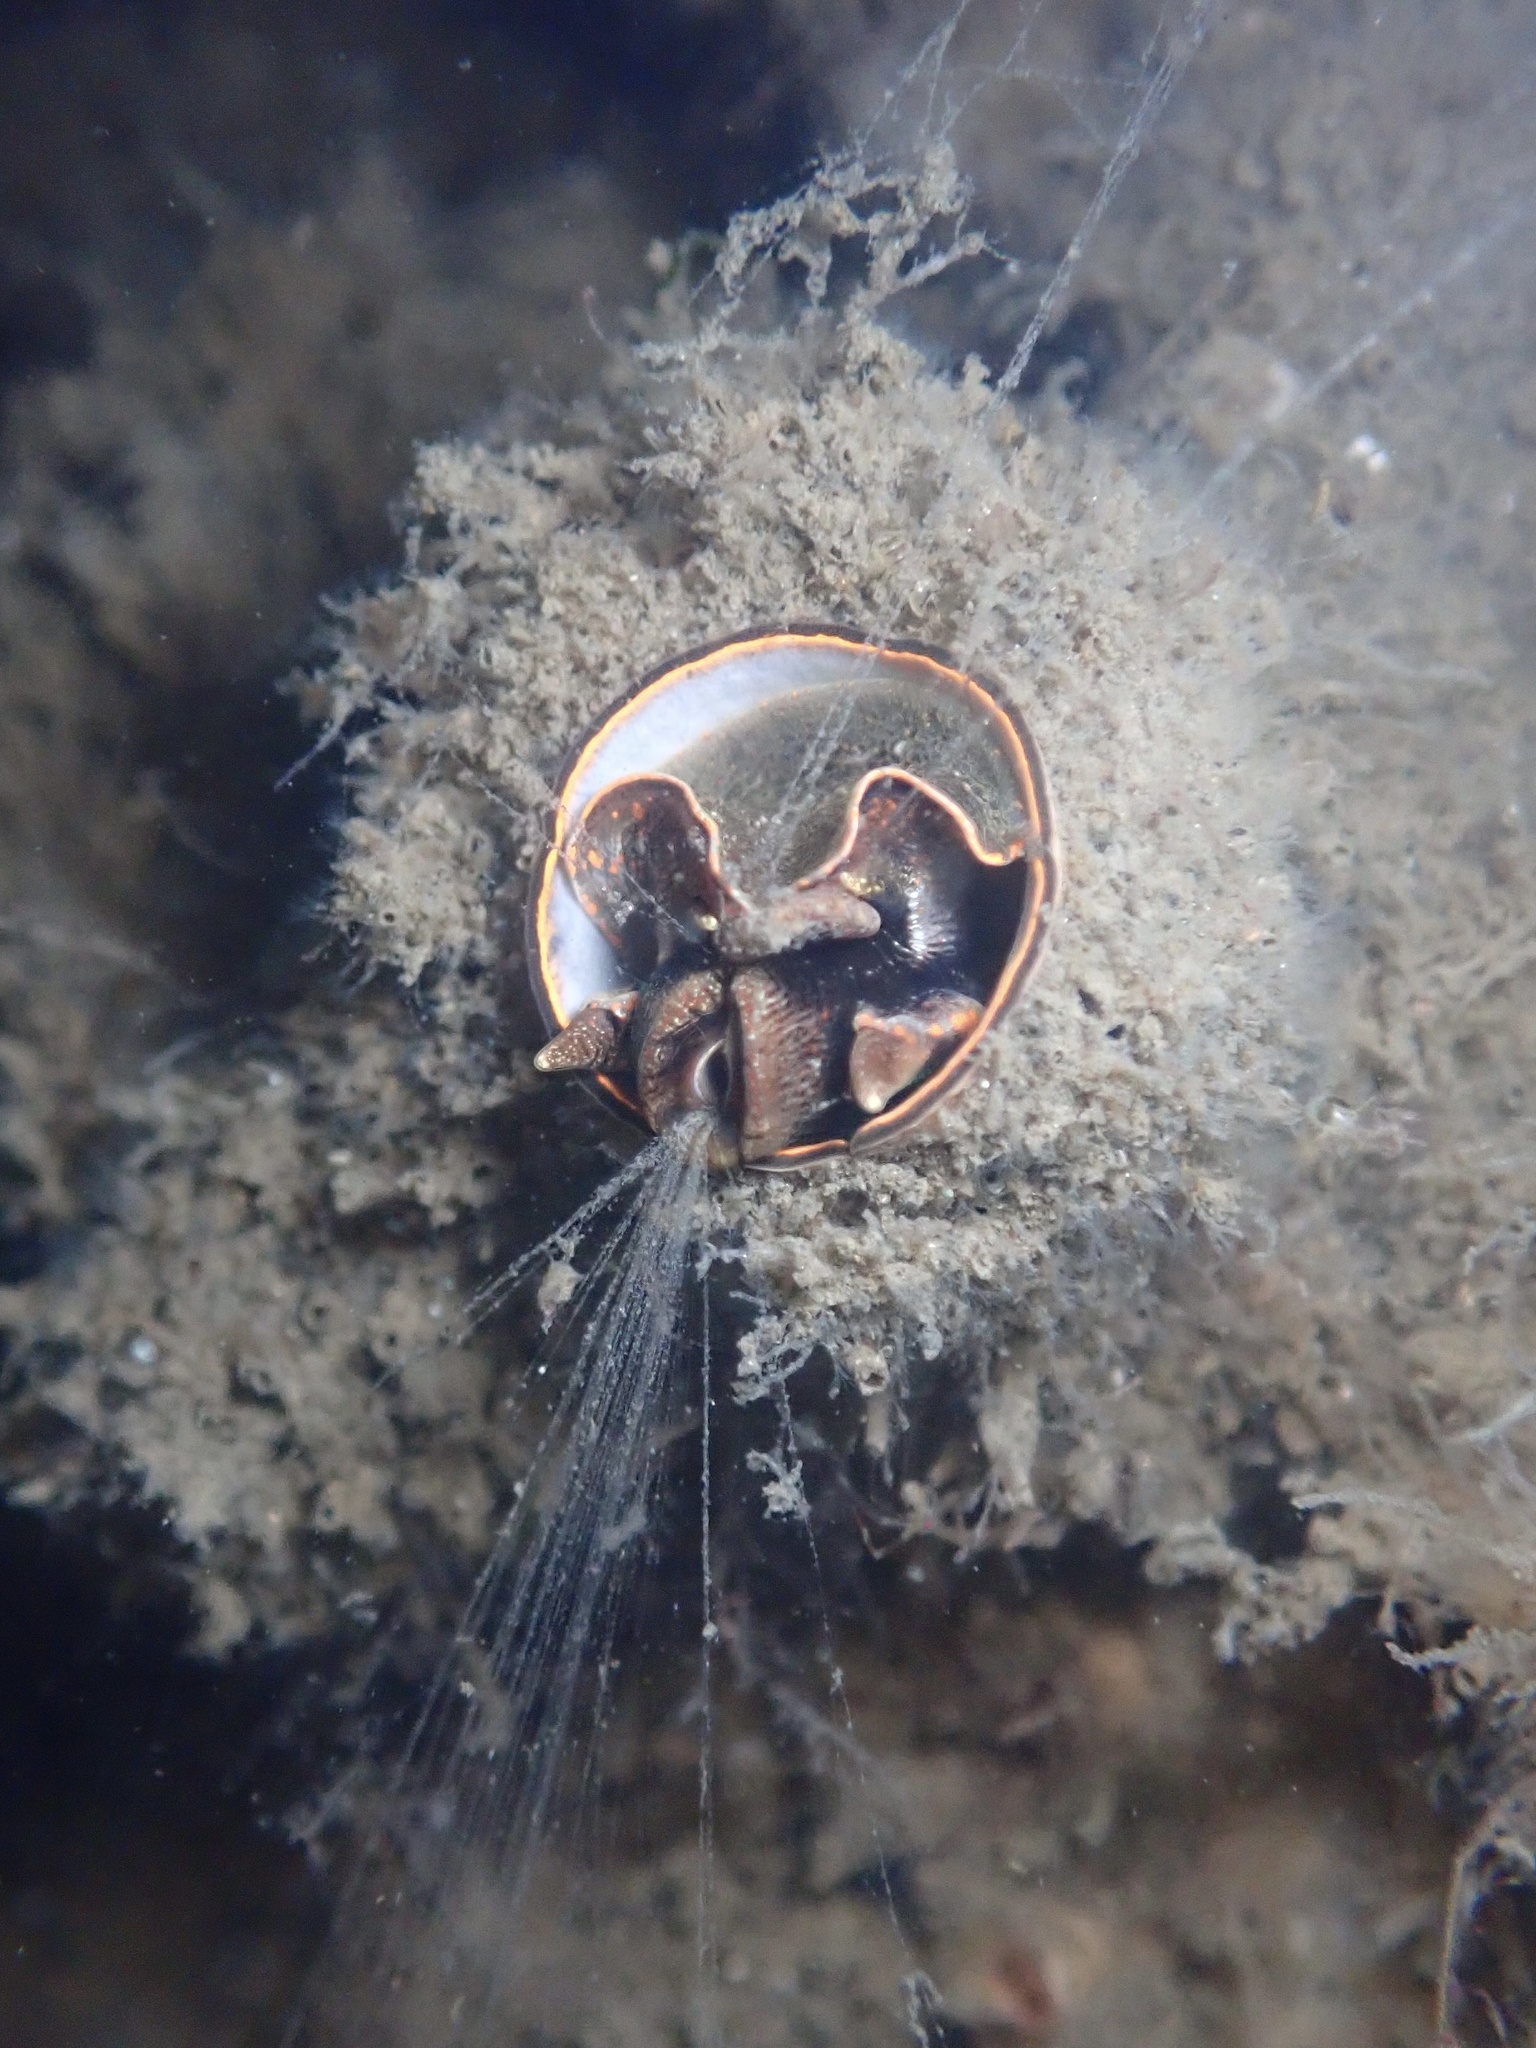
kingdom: Animalia
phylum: Mollusca
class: Gastropoda
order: Littorinimorpha
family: Vermetidae
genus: Thylacodes
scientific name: Thylacodes squamigerus
